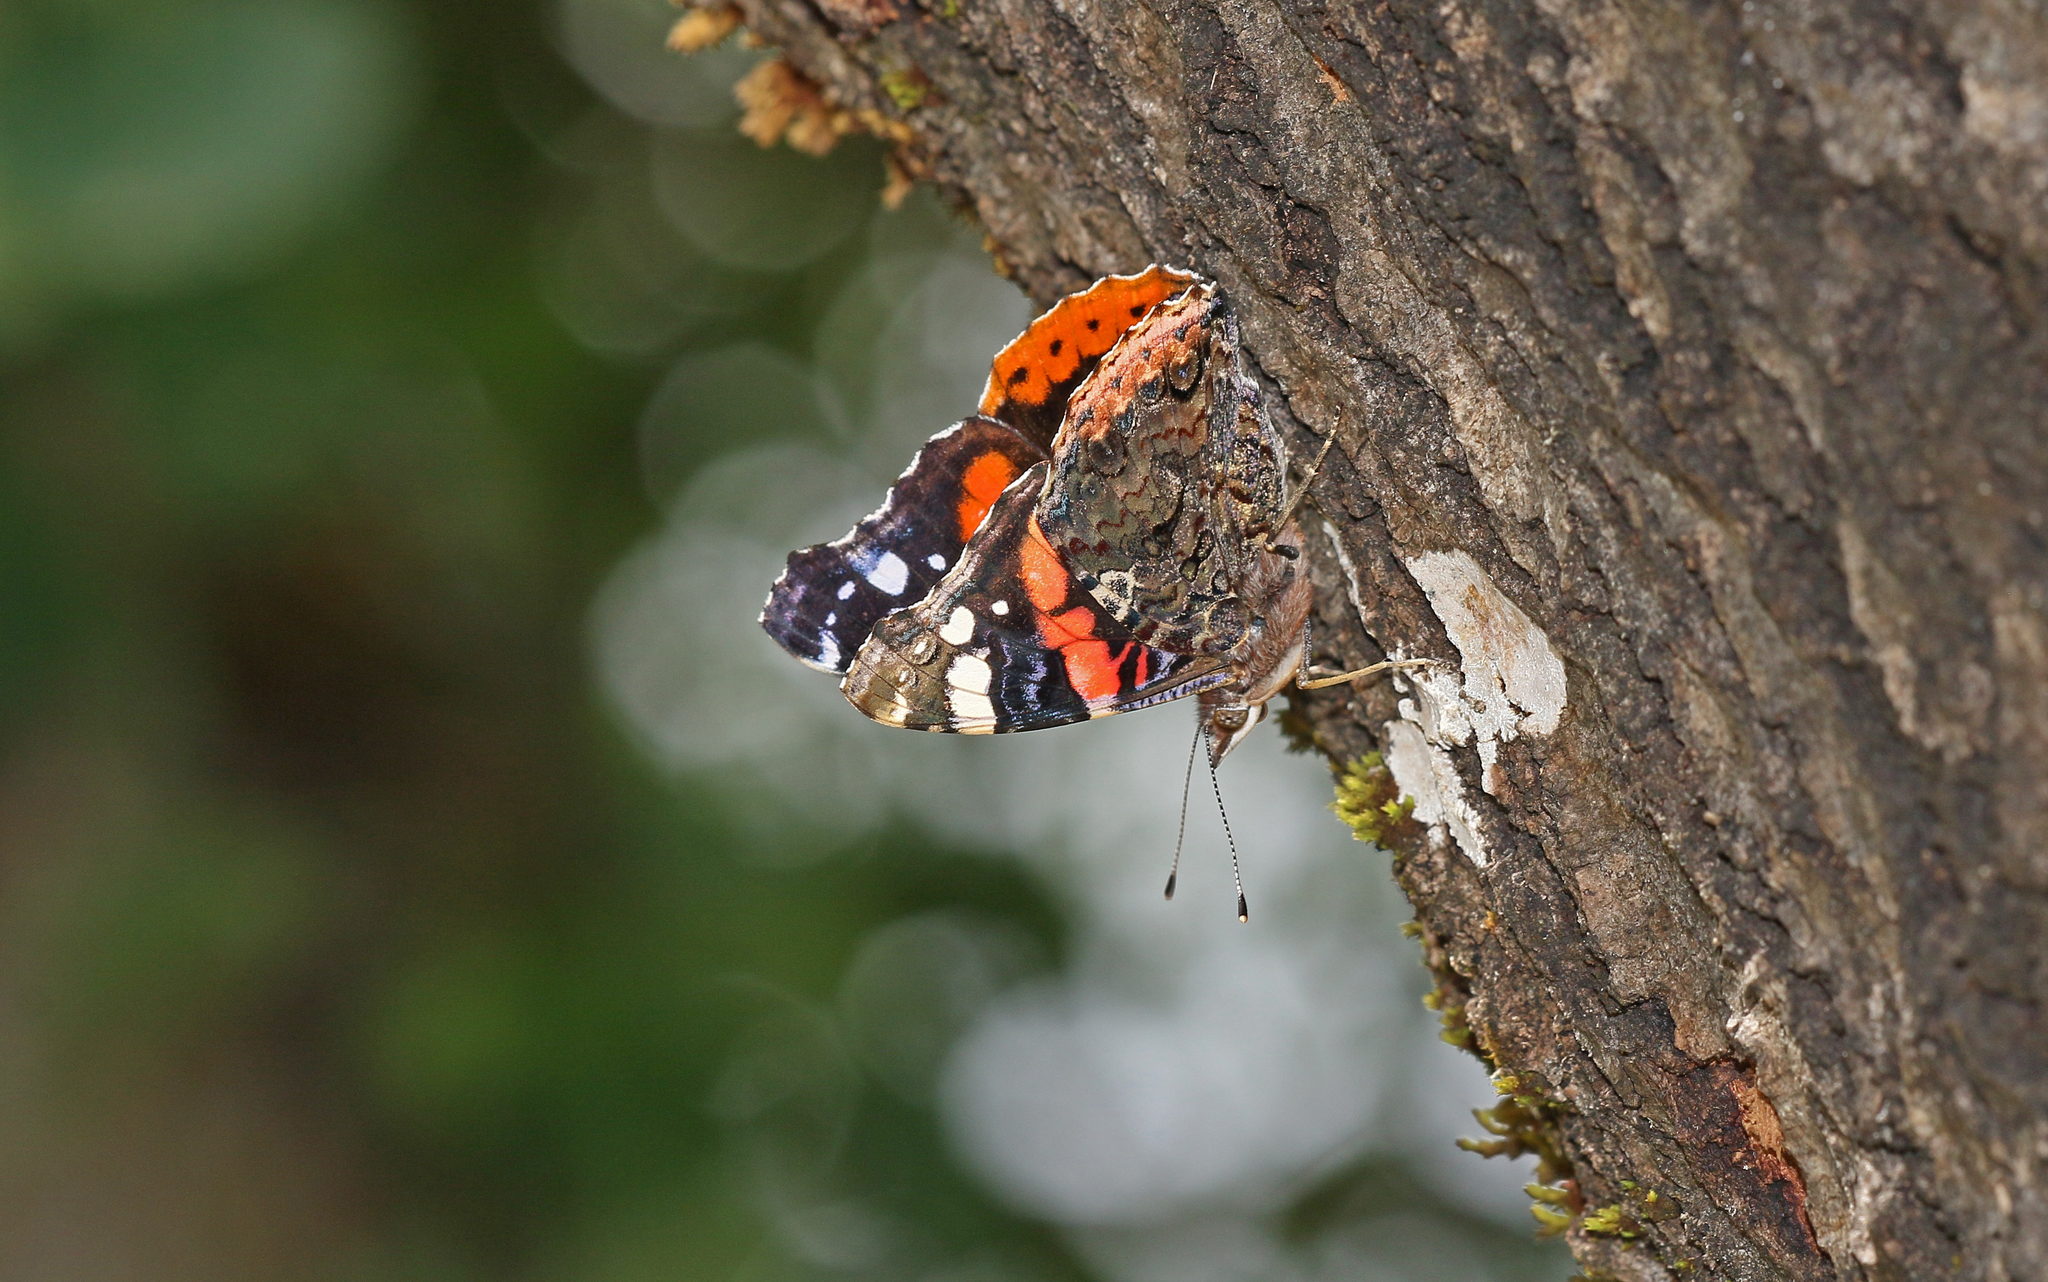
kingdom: Animalia
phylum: Arthropoda
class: Insecta
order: Lepidoptera
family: Nymphalidae
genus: Vanessa
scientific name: Vanessa atalanta
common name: Red admiral
